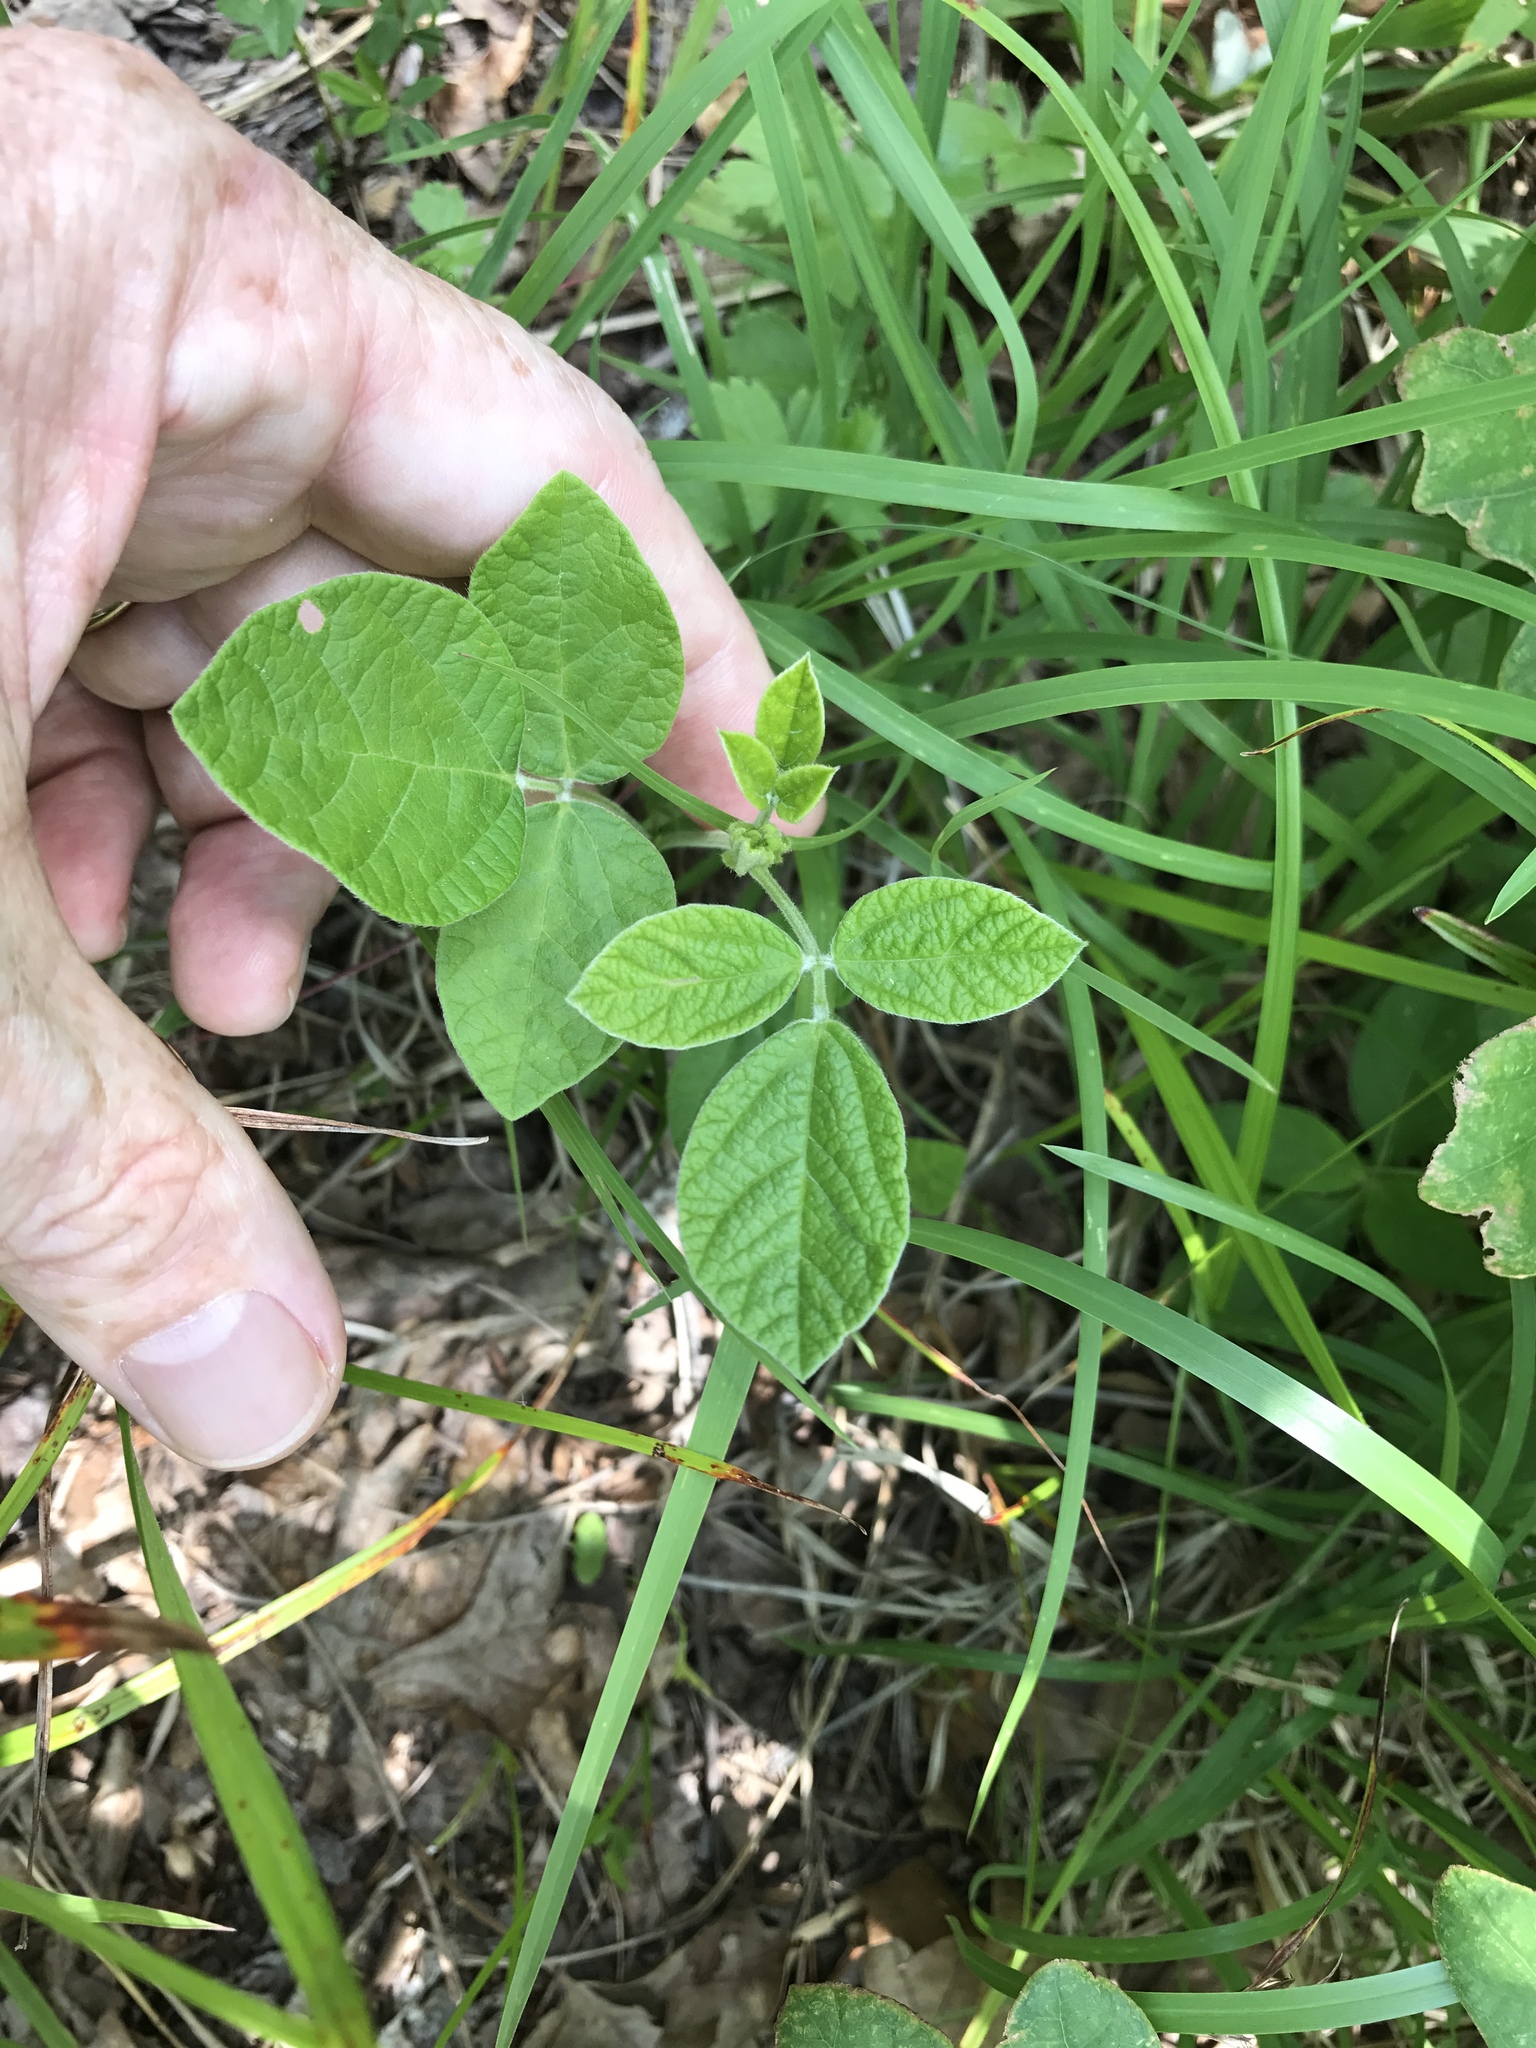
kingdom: Plantae
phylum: Tracheophyta
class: Magnoliopsida
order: Fabales
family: Fabaceae
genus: Rhynchosia
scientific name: Rhynchosia tomentosa
